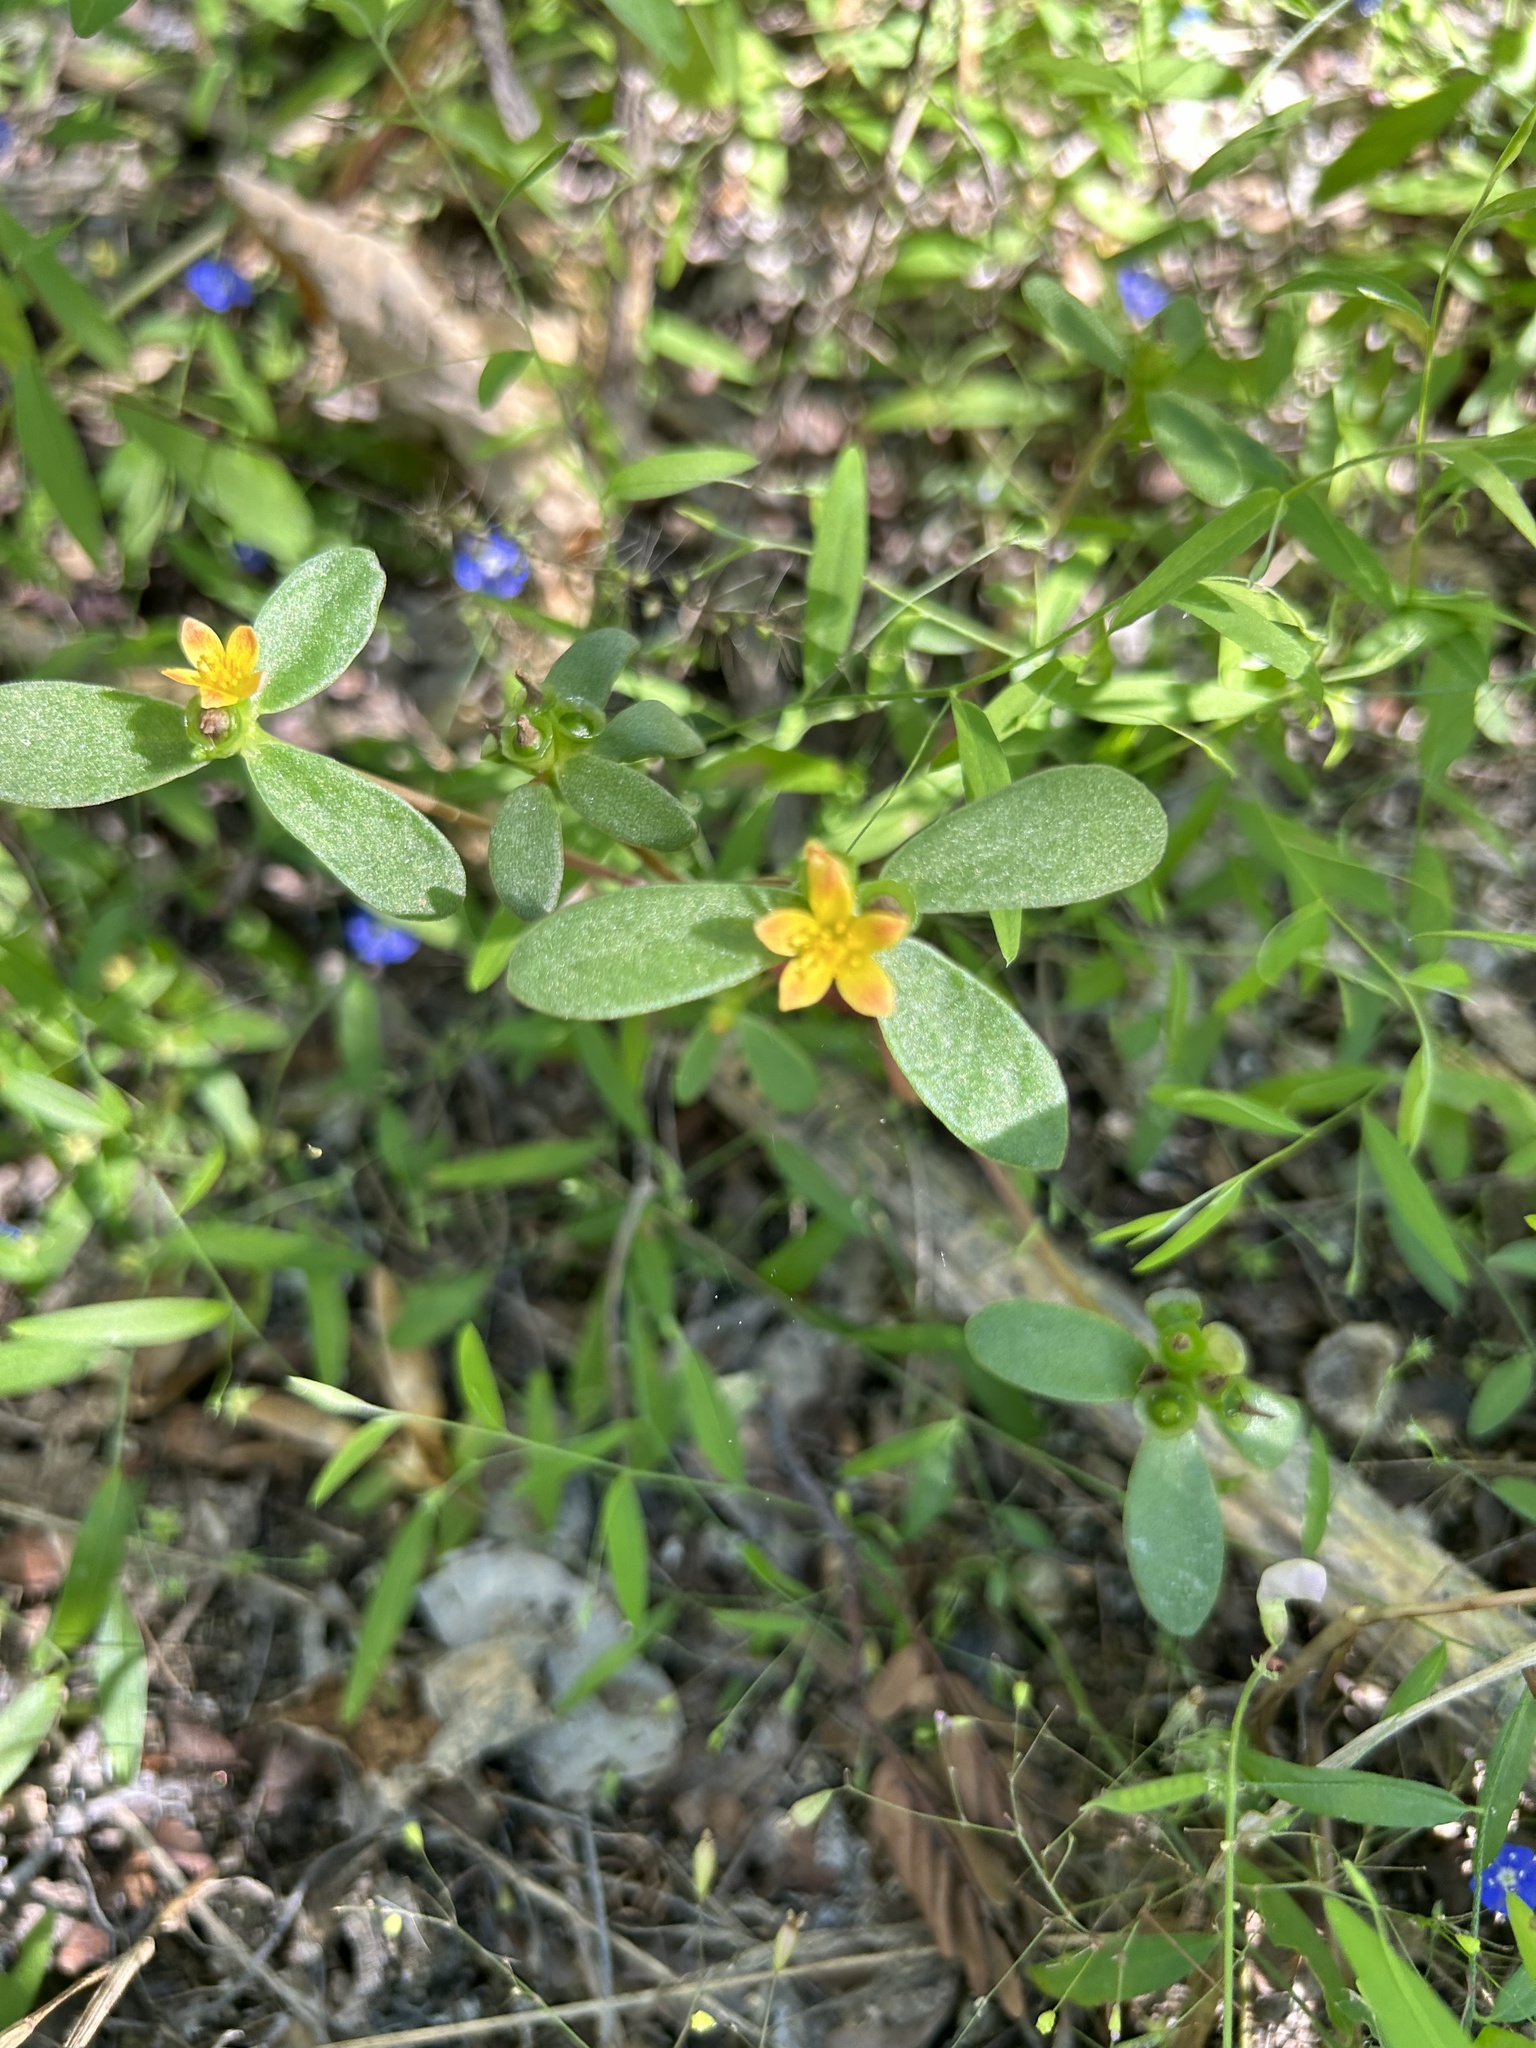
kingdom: Plantae
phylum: Tracheophyta
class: Magnoliopsida
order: Caryophyllales
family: Portulacaceae
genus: Portulaca
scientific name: Portulaca umbraticola
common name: Wingpod purslane
